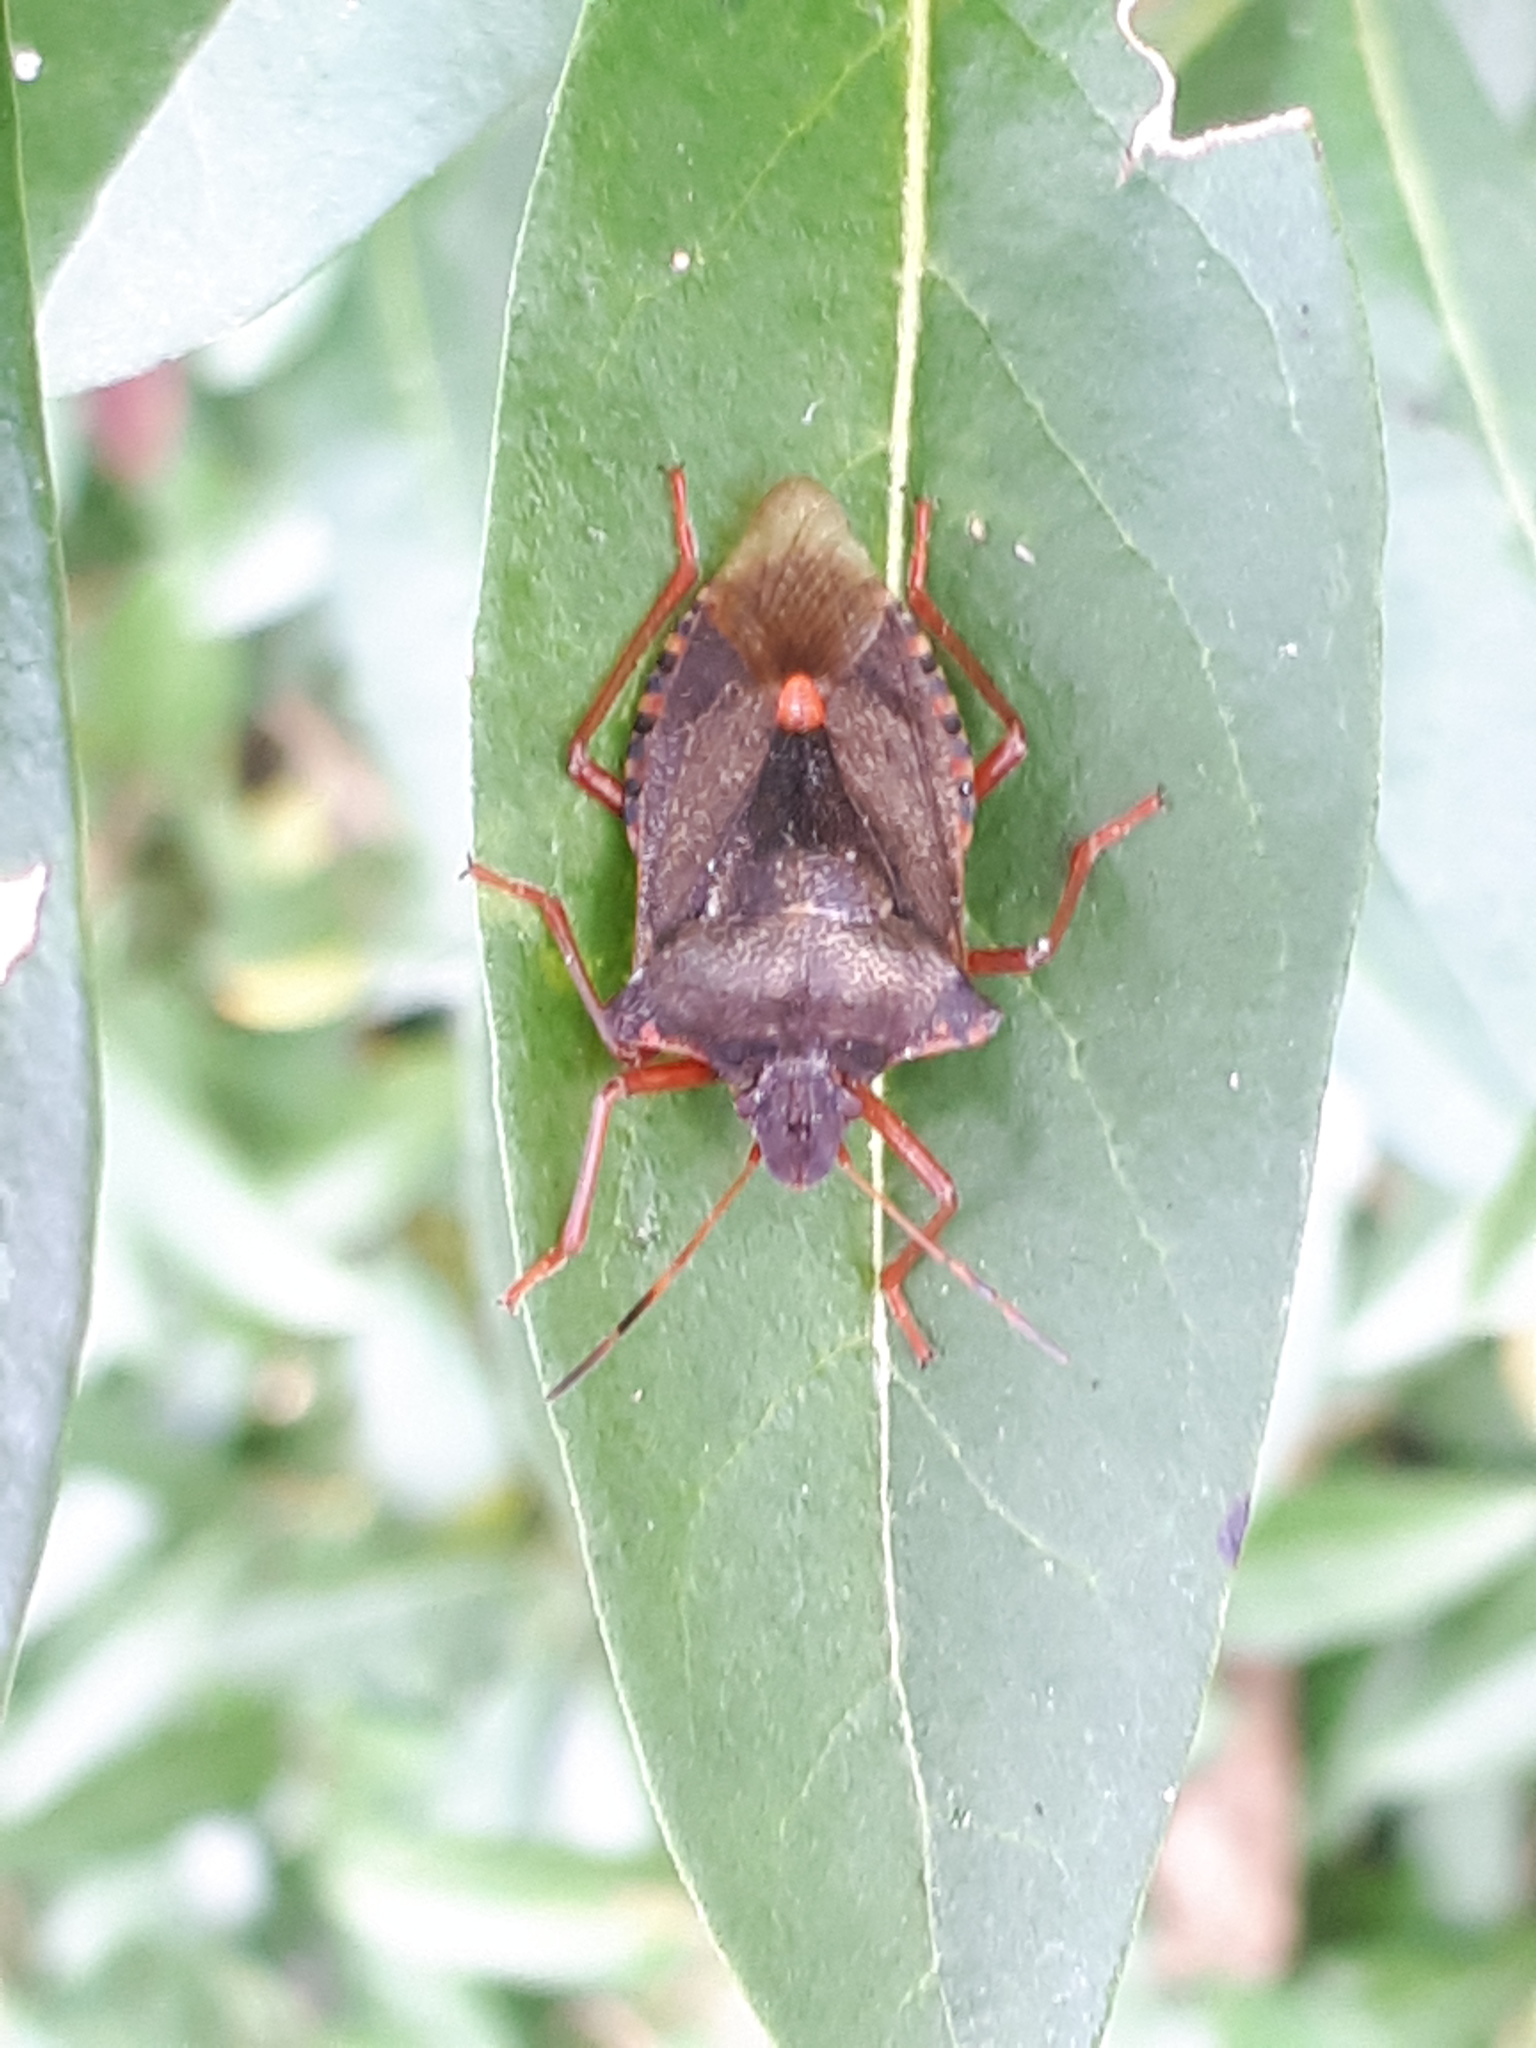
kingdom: Animalia
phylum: Arthropoda
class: Insecta
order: Hemiptera
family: Pentatomidae
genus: Pentatoma
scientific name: Pentatoma rufipes
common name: Forest bug
